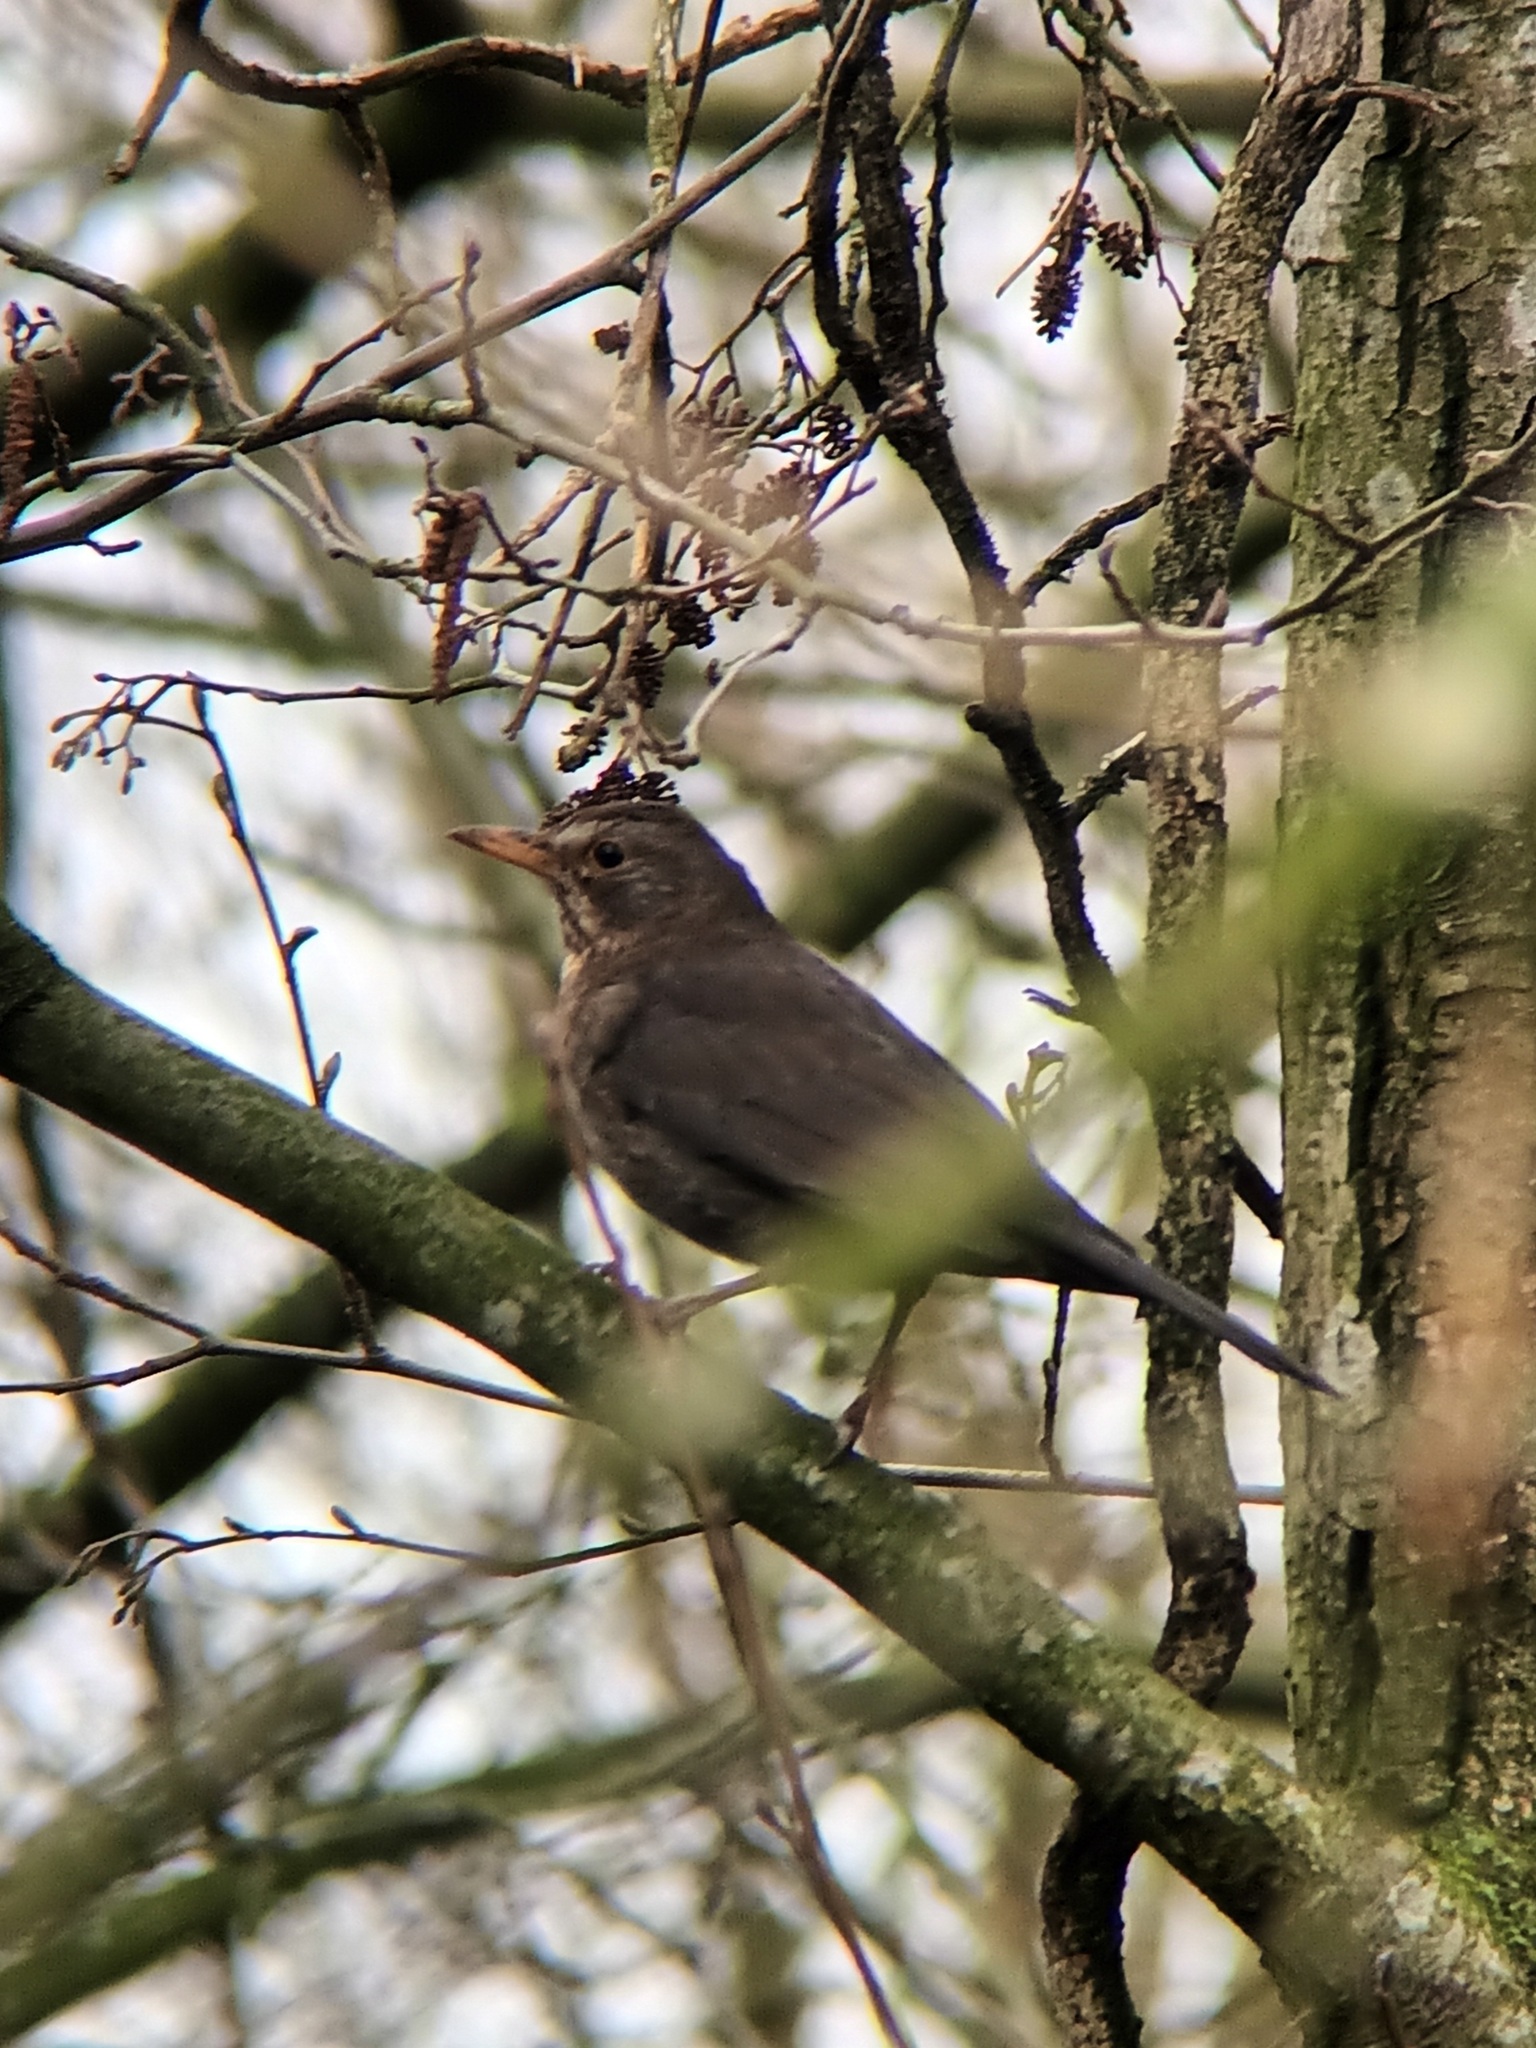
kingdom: Animalia
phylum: Chordata
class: Aves
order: Passeriformes
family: Turdidae
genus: Turdus
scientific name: Turdus merula
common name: Common blackbird
